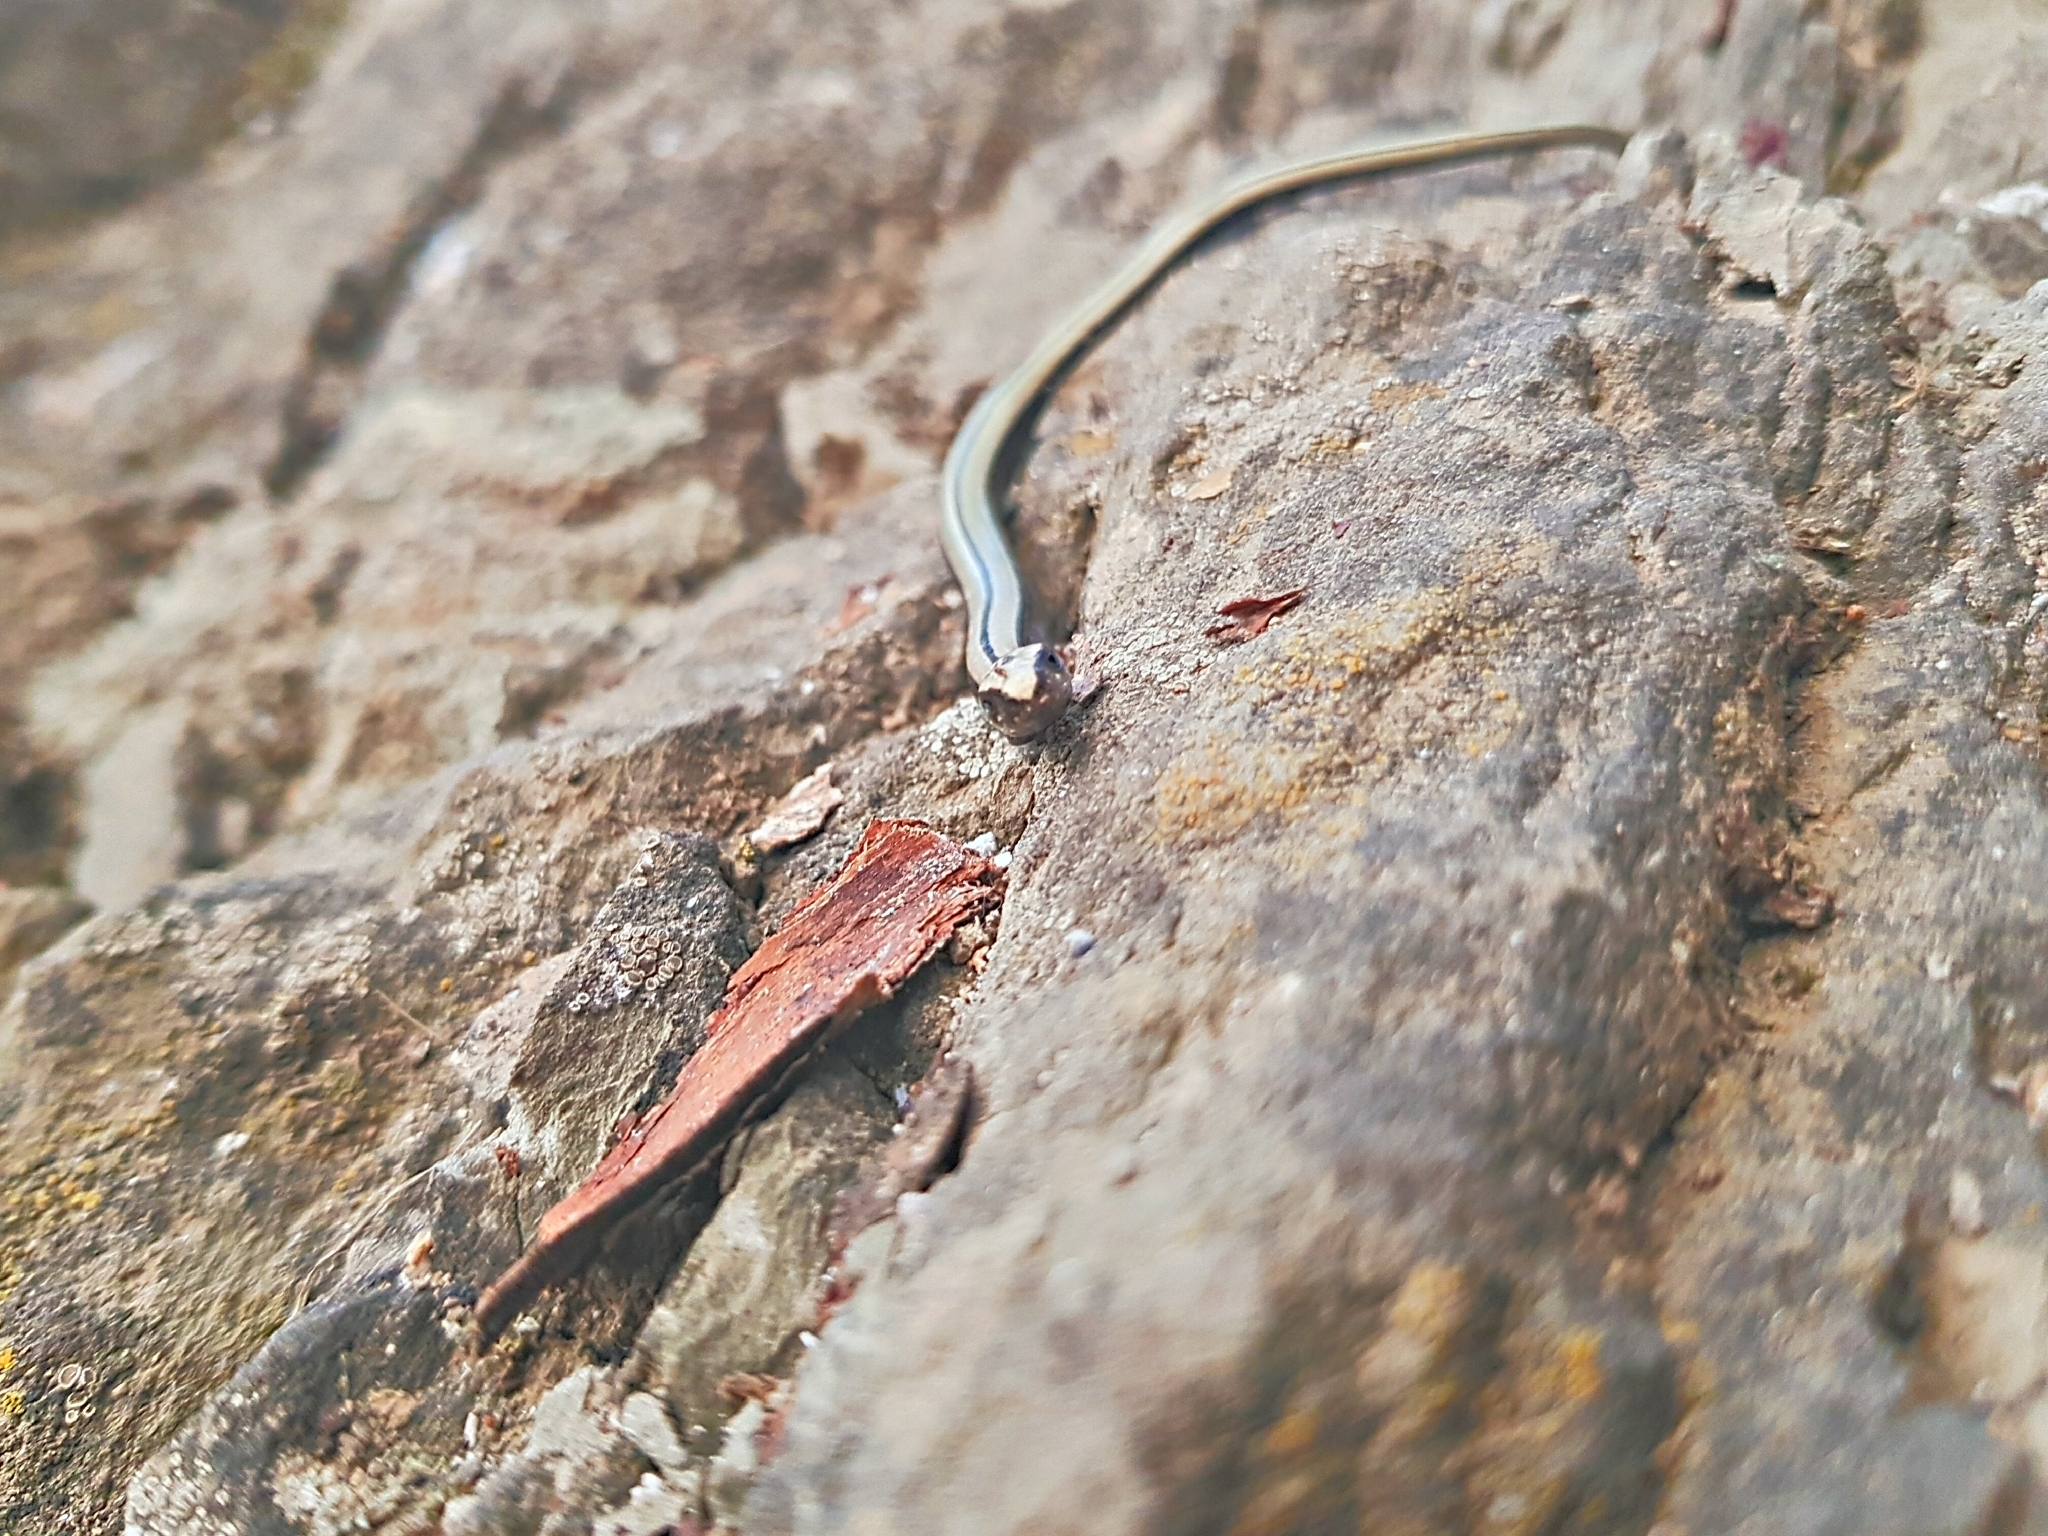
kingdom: Animalia
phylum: Chordata
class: Squamata
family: Anguidae
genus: Anguis
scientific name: Anguis colchica
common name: Slow worm
